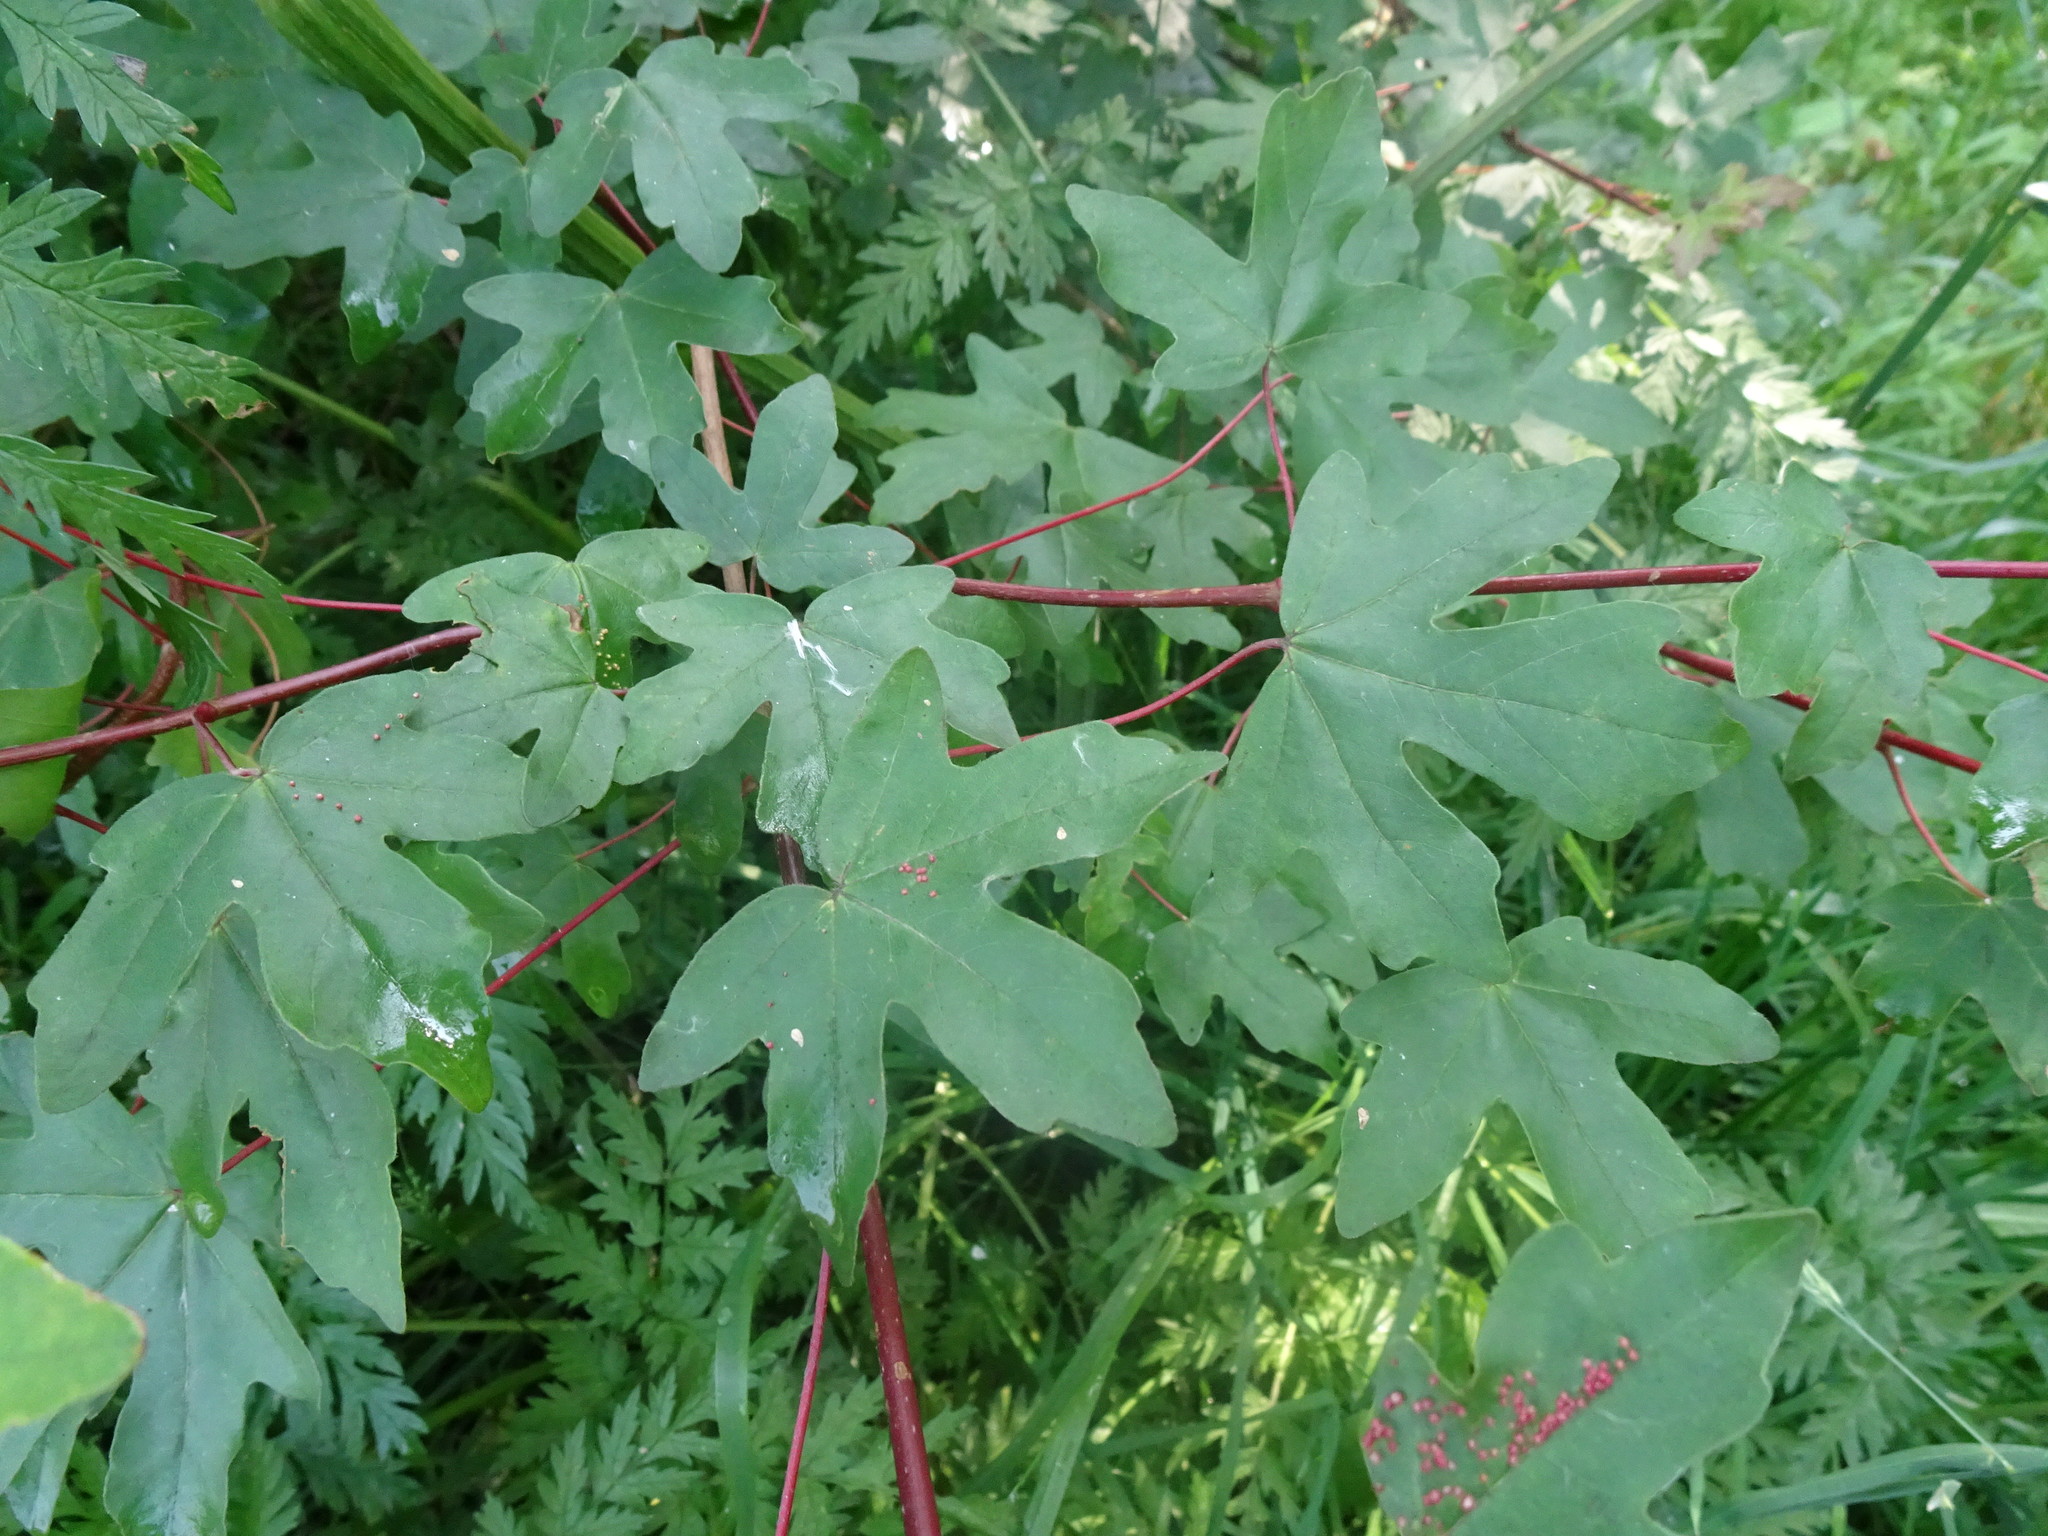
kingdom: Plantae
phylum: Tracheophyta
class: Magnoliopsida
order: Sapindales
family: Sapindaceae
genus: Acer
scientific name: Acer campestre
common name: Field maple
